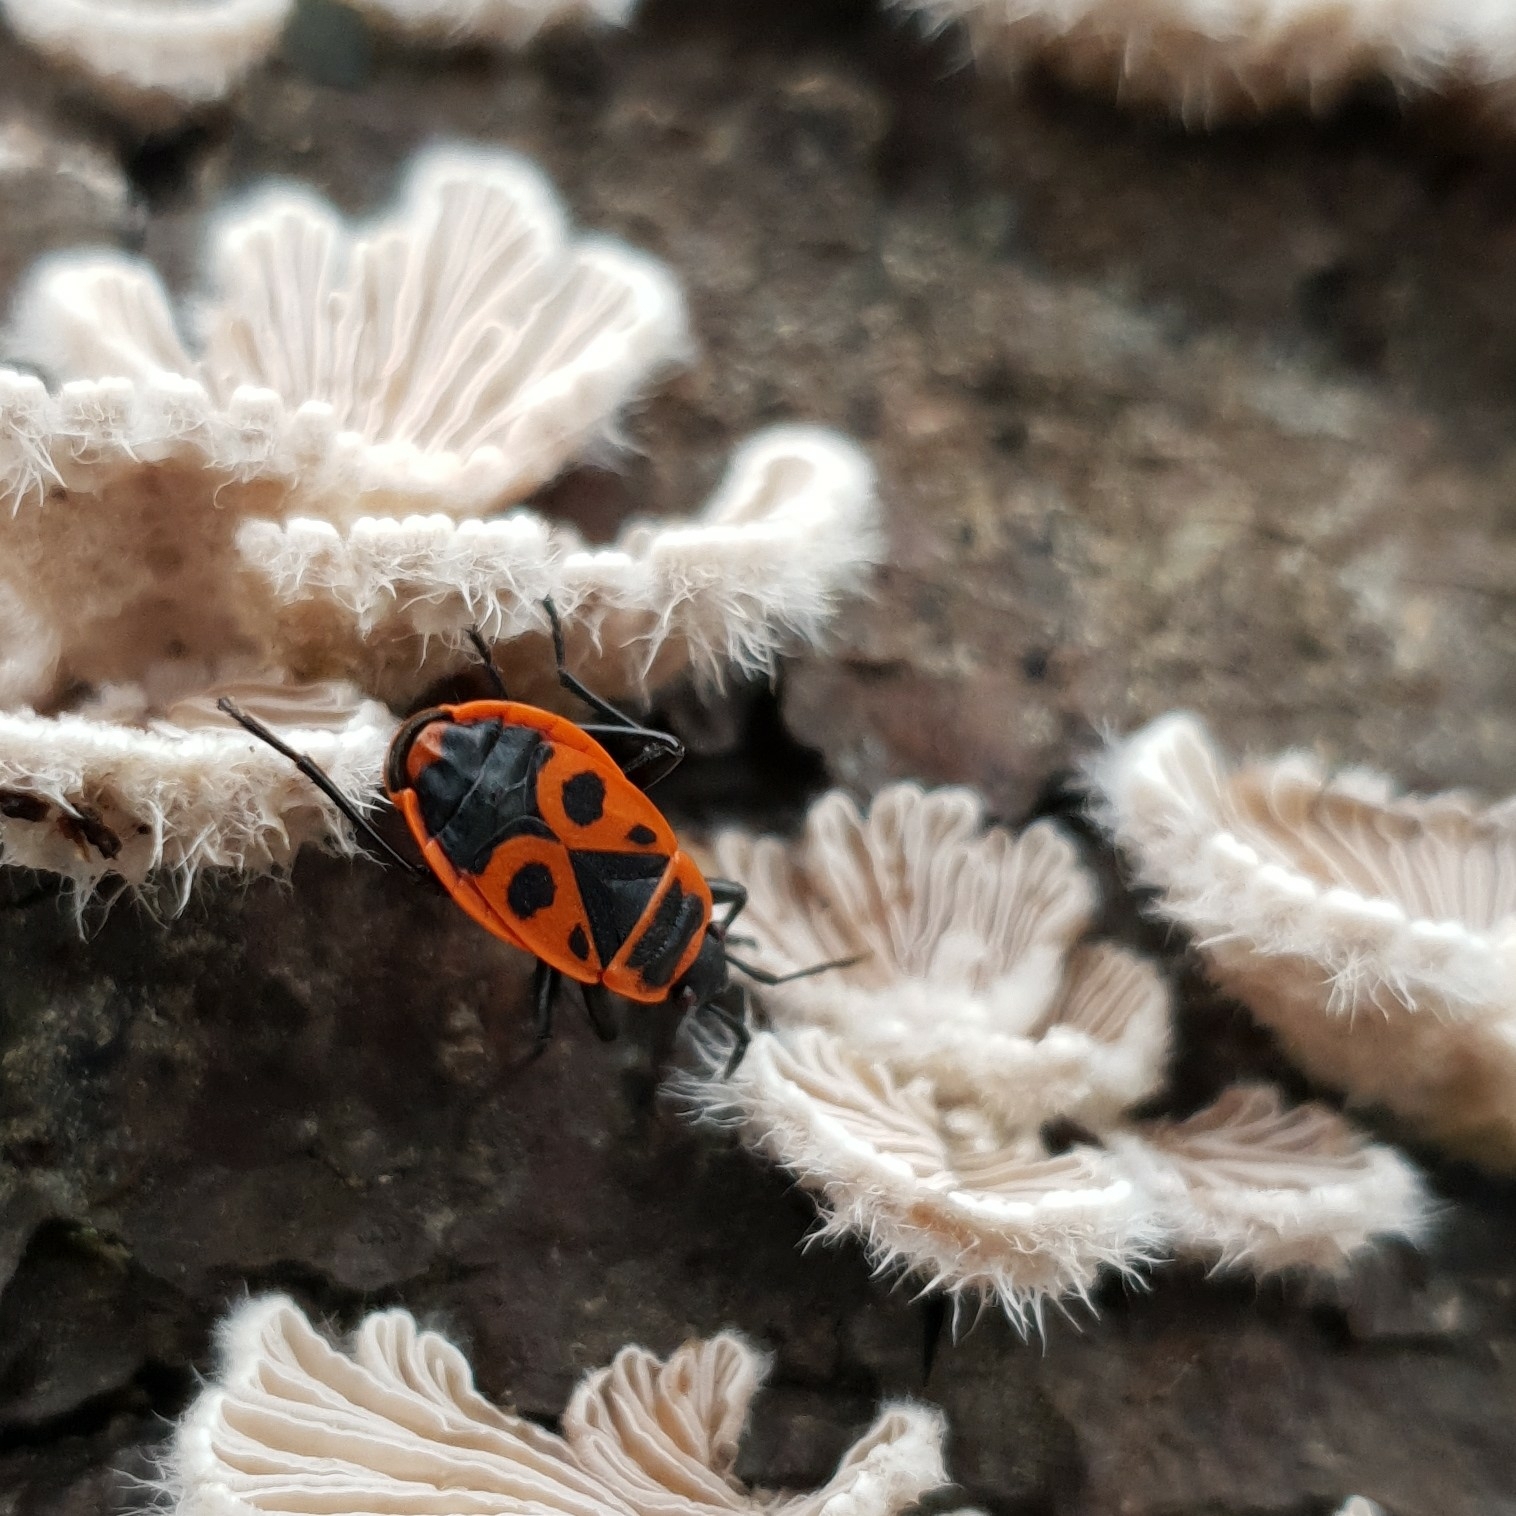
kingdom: Animalia
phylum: Arthropoda
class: Insecta
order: Hemiptera
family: Pyrrhocoridae
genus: Pyrrhocoris
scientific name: Pyrrhocoris apterus
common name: Firebug
